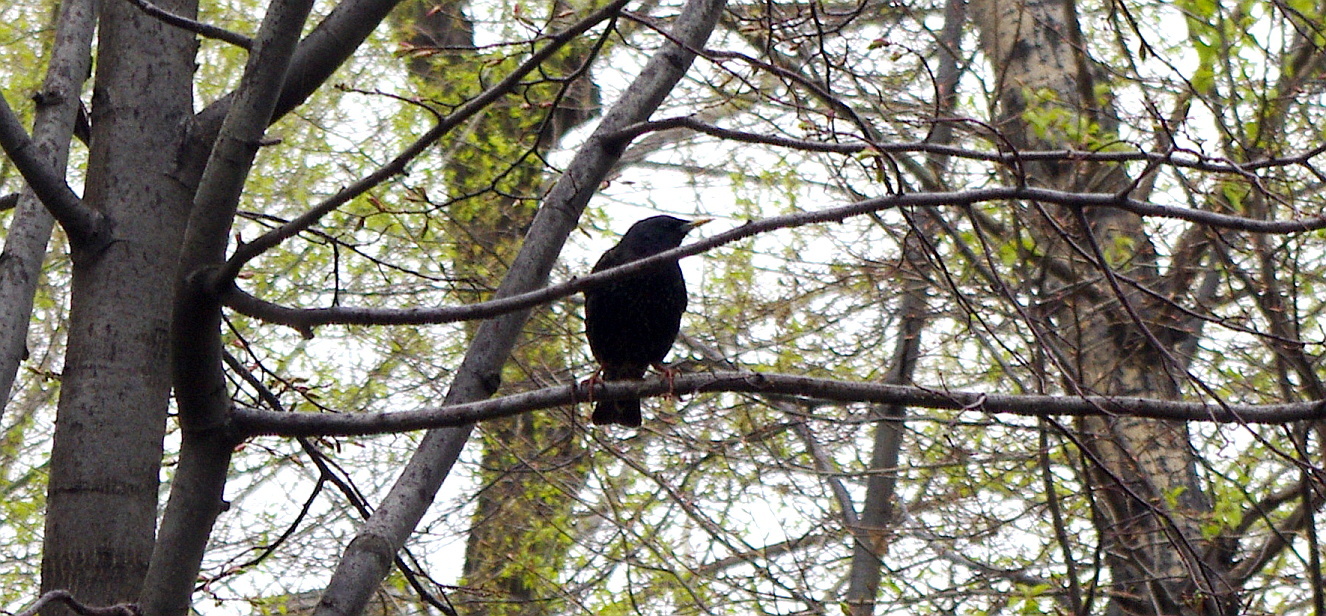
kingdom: Animalia
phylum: Chordata
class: Aves
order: Passeriformes
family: Sturnidae
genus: Sturnus
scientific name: Sturnus vulgaris
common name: Common starling
